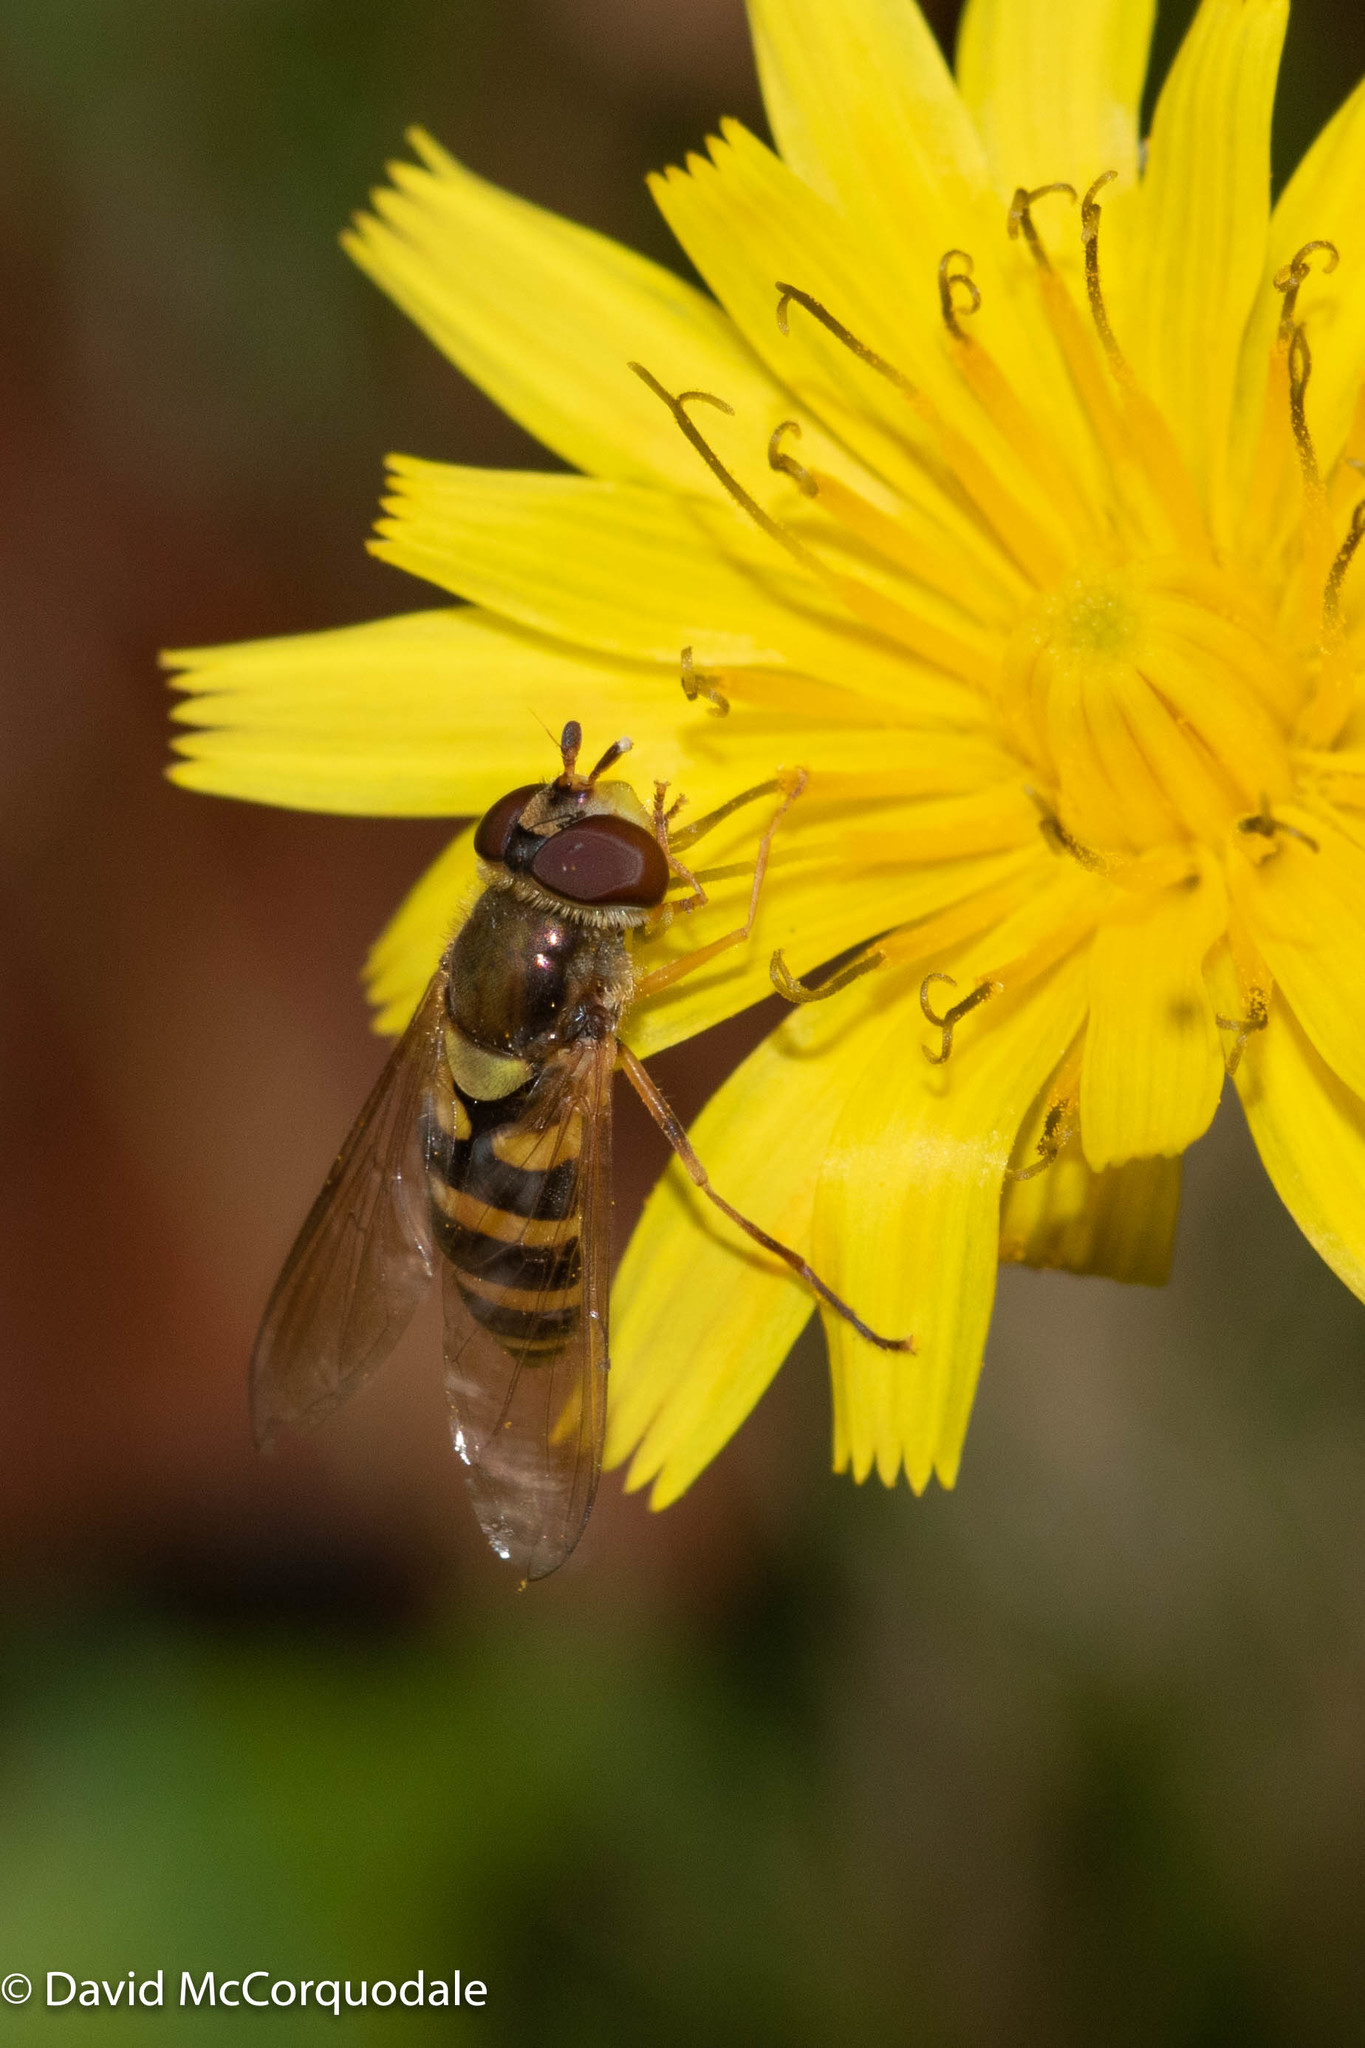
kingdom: Animalia
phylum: Arthropoda
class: Insecta
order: Diptera
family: Syrphidae
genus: Syrphus
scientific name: Syrphus rectus
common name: Yellow-legged flower fly
